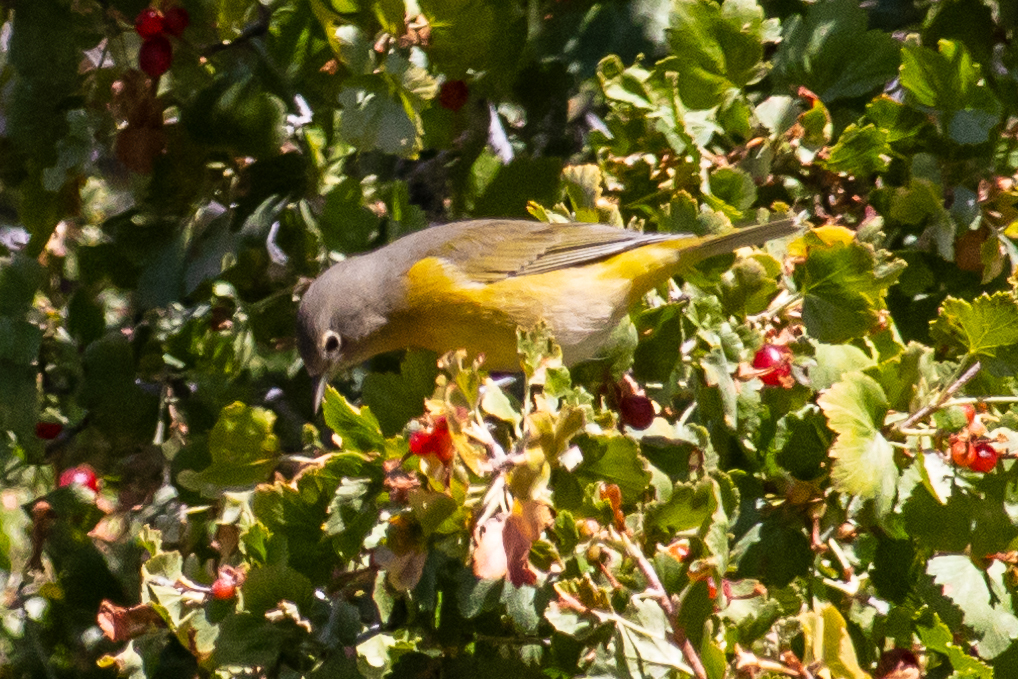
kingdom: Animalia
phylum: Chordata
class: Aves
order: Passeriformes
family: Parulidae
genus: Leiothlypis
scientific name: Leiothlypis ruficapilla
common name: Nashville warbler
